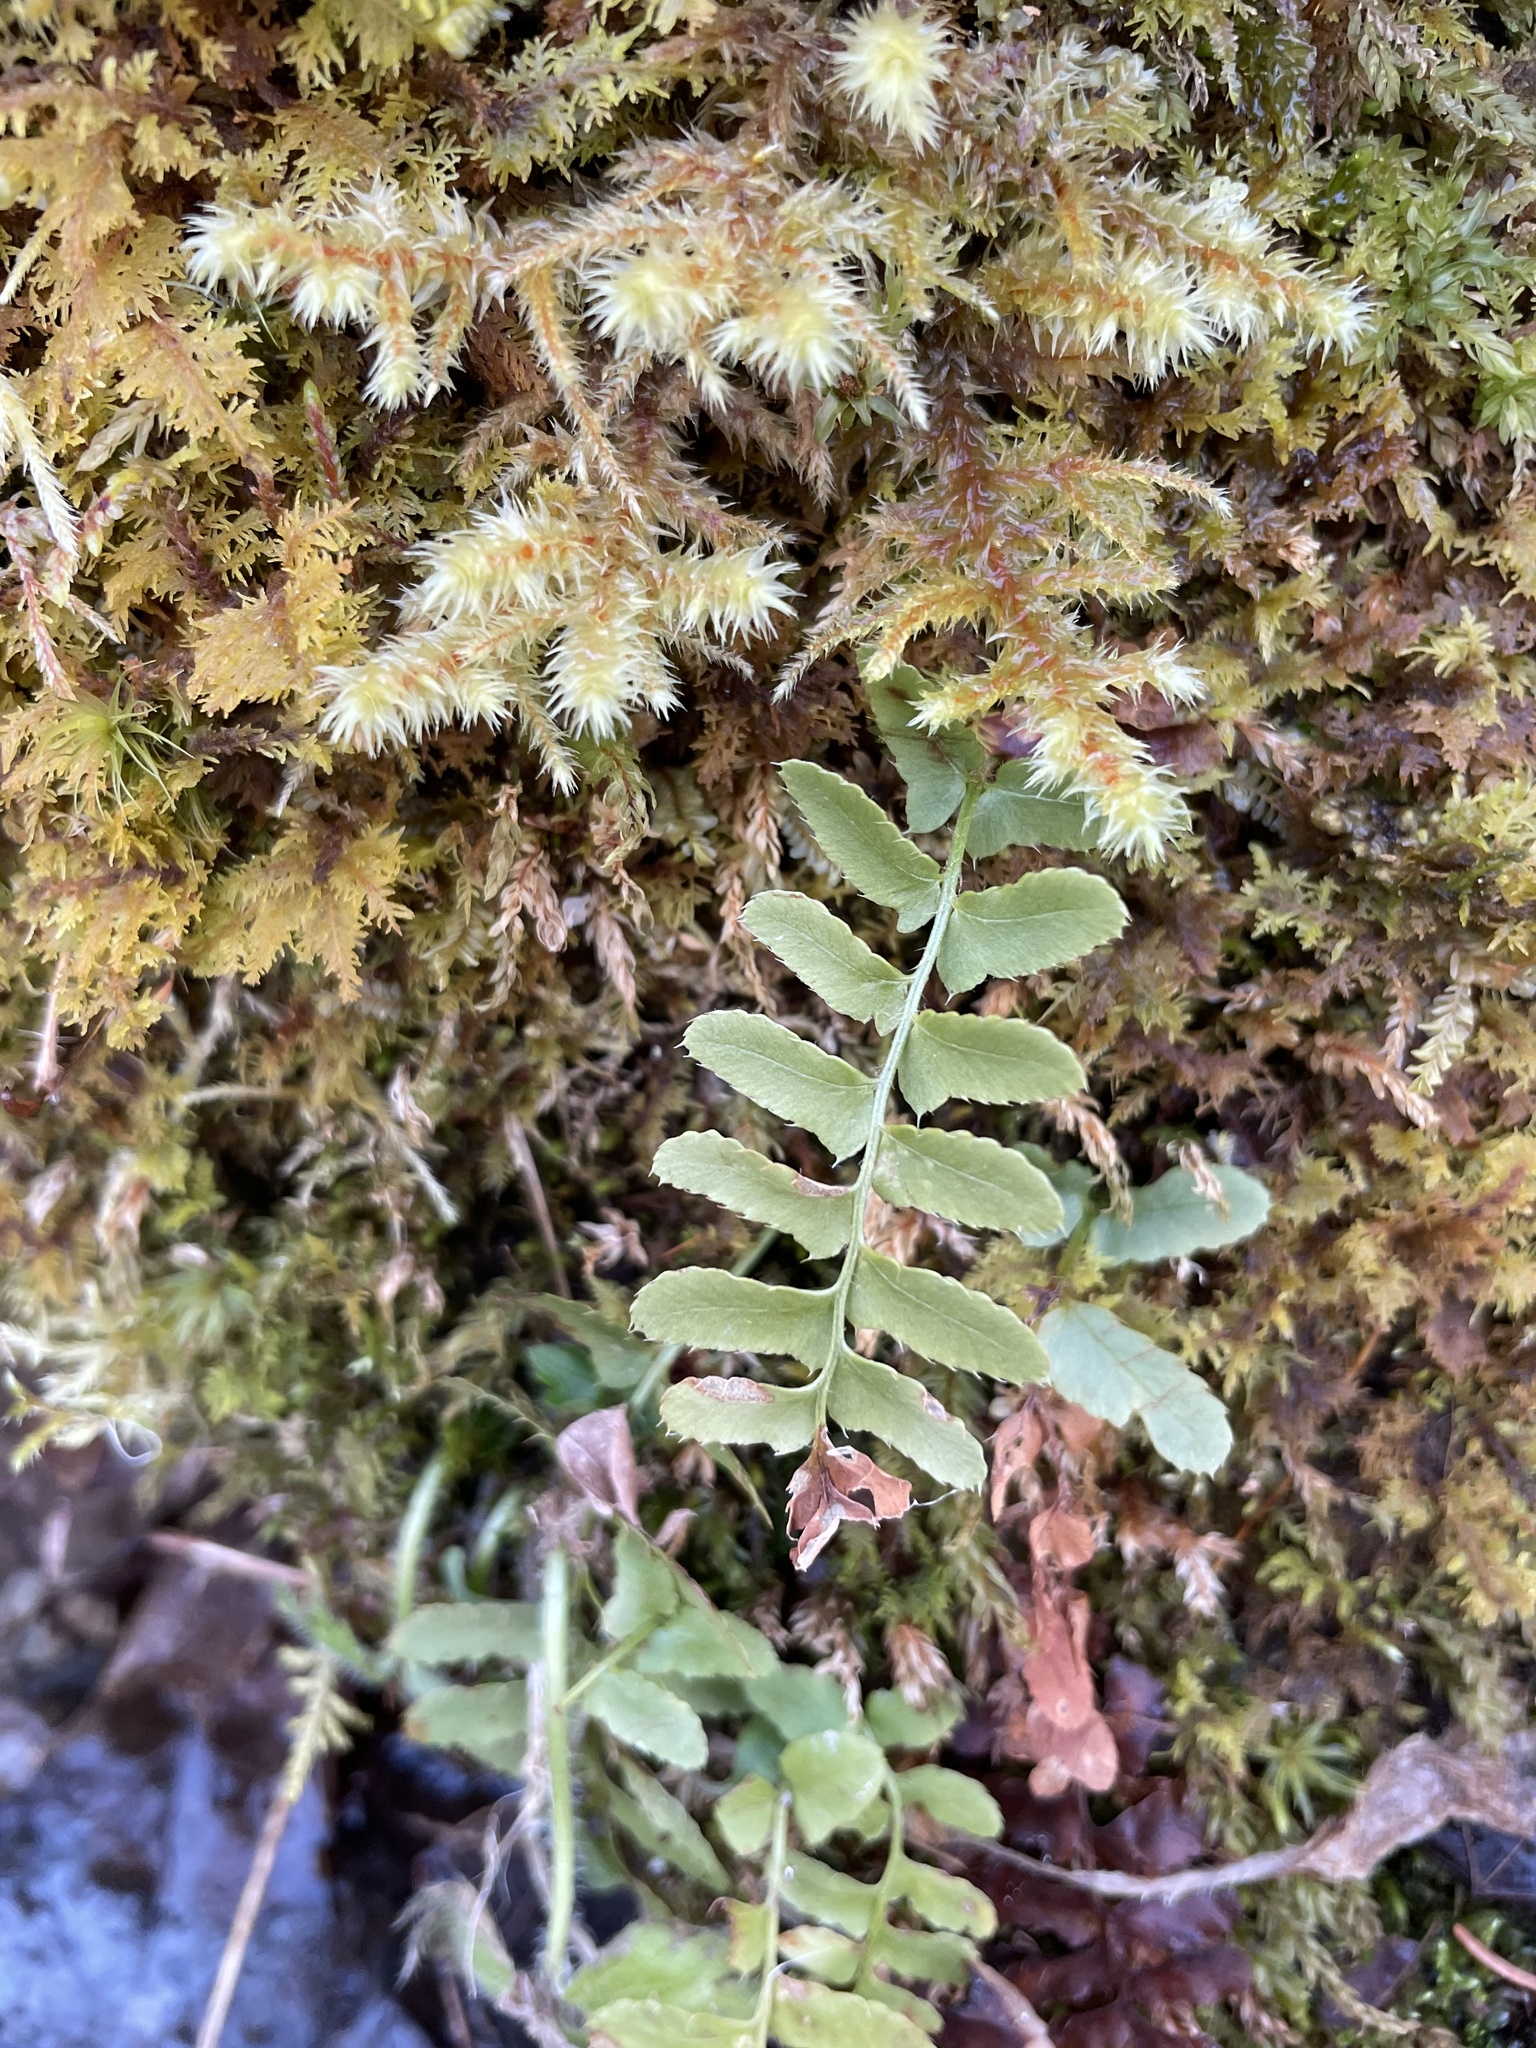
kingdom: Plantae
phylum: Tracheophyta
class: Polypodiopsida
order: Polypodiales
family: Dryopteridaceae
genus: Polystichum
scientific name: Polystichum acrostichoides
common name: Christmas fern
